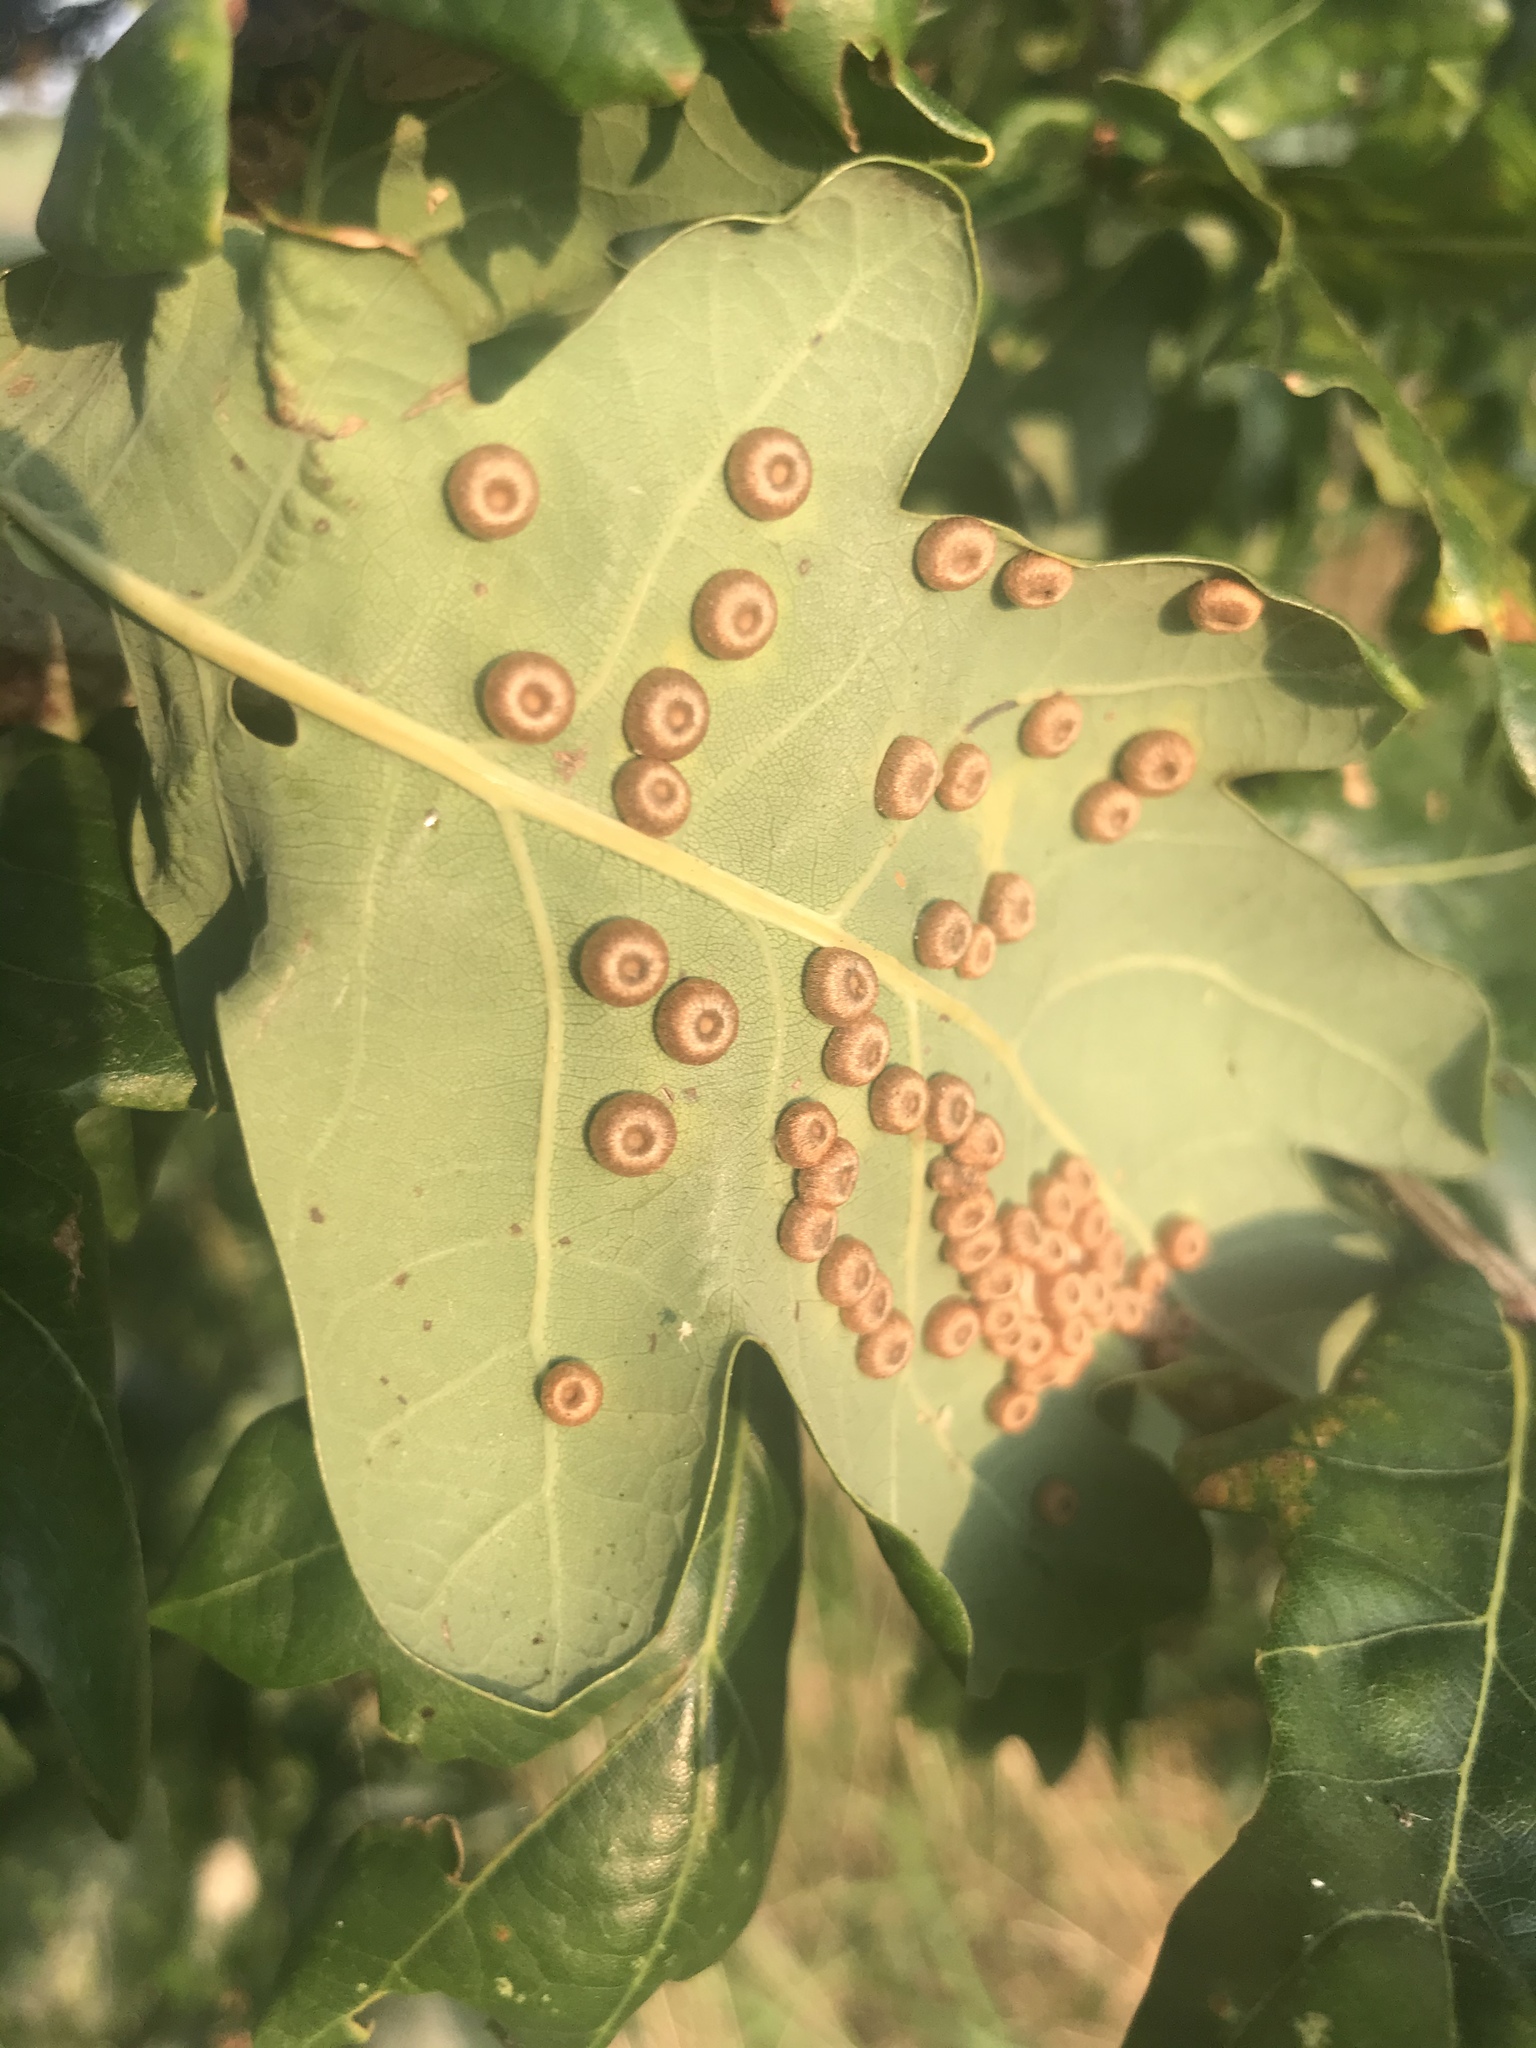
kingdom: Animalia
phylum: Arthropoda
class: Insecta
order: Hymenoptera
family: Cynipidae
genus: Neuroterus
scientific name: Neuroterus numismalis
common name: Silk-button spangle gall
